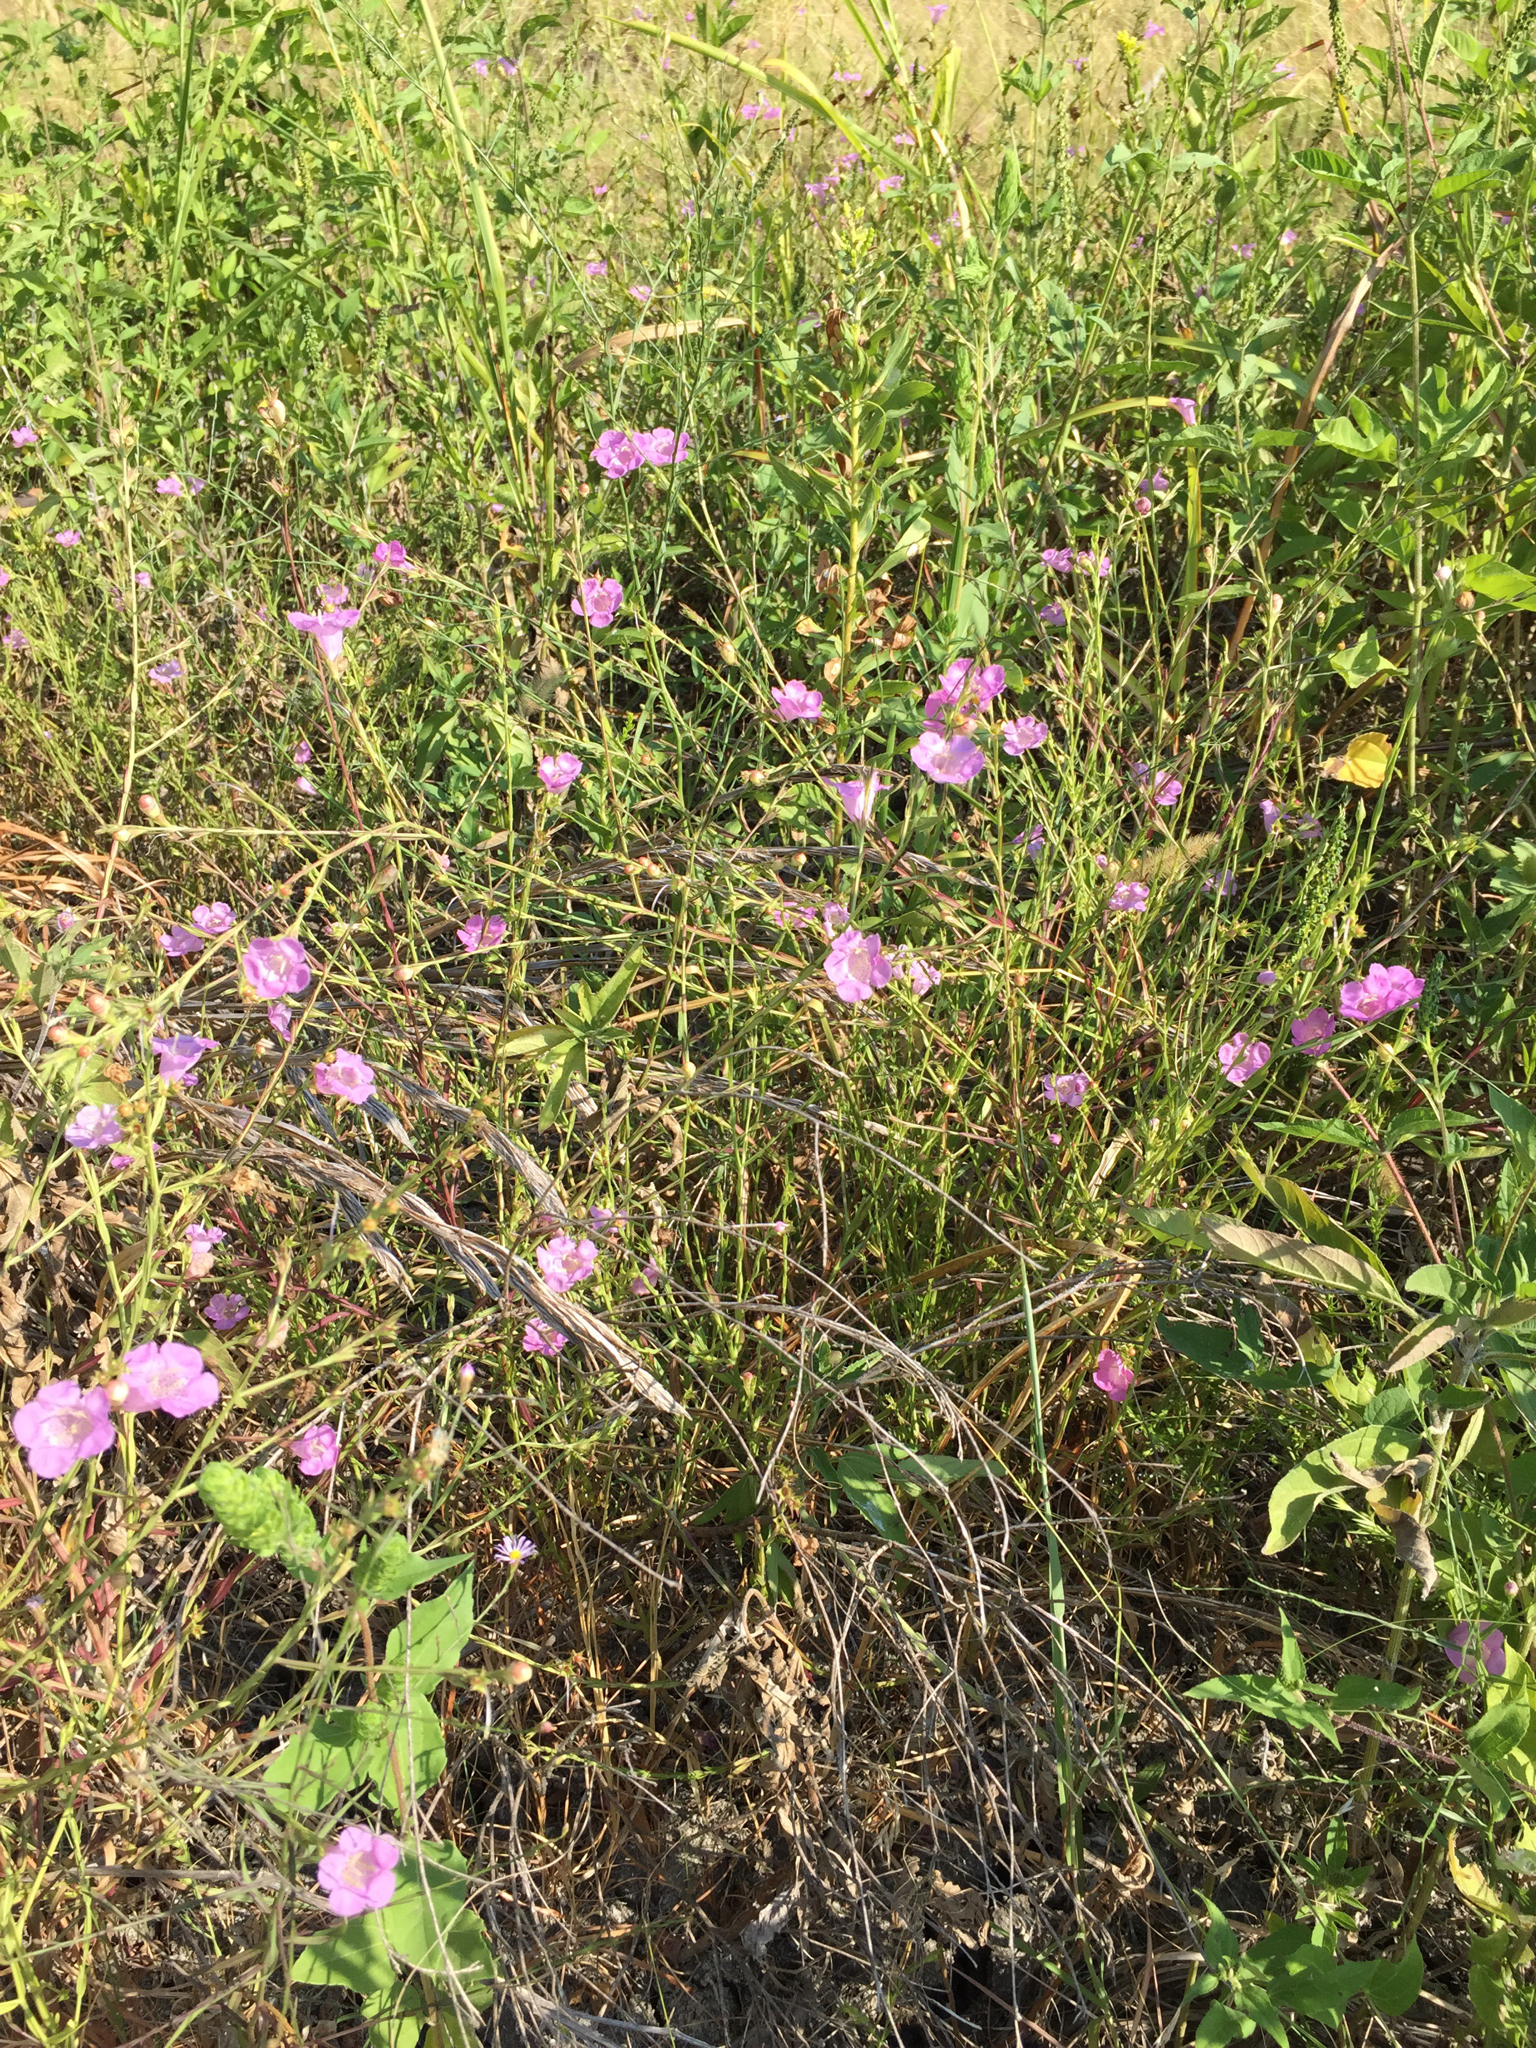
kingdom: Plantae
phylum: Tracheophyta
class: Magnoliopsida
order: Lamiales
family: Orobanchaceae
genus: Agalinis
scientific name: Agalinis heterophylla
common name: Prairie agalinis
